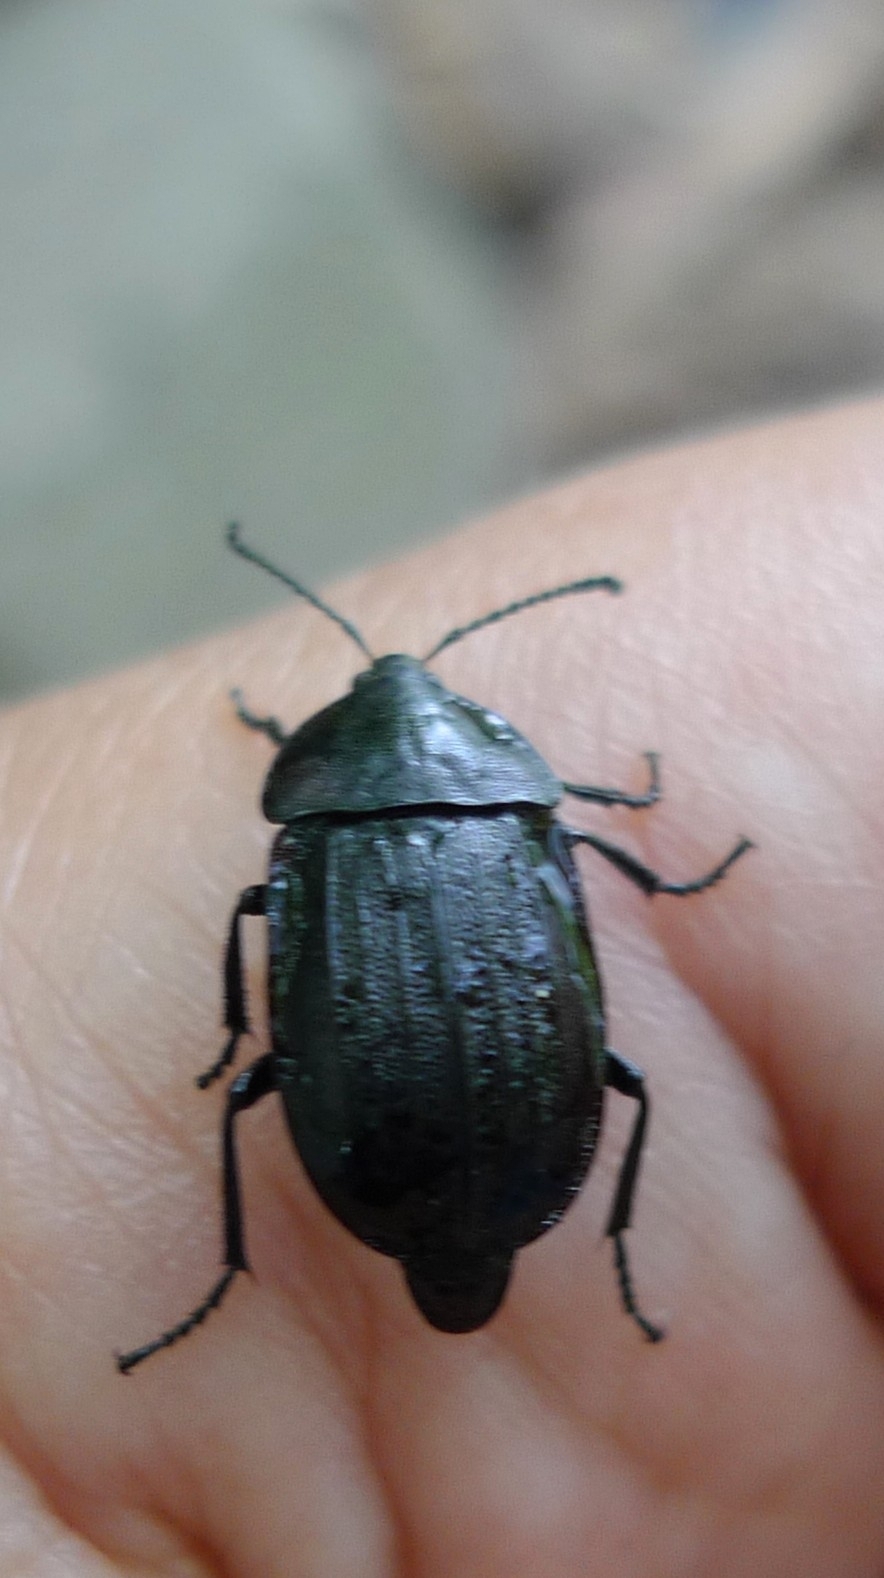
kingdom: Animalia
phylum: Arthropoda
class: Insecta
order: Coleoptera
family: Staphylinidae
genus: Silpha
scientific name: Silpha atrata
